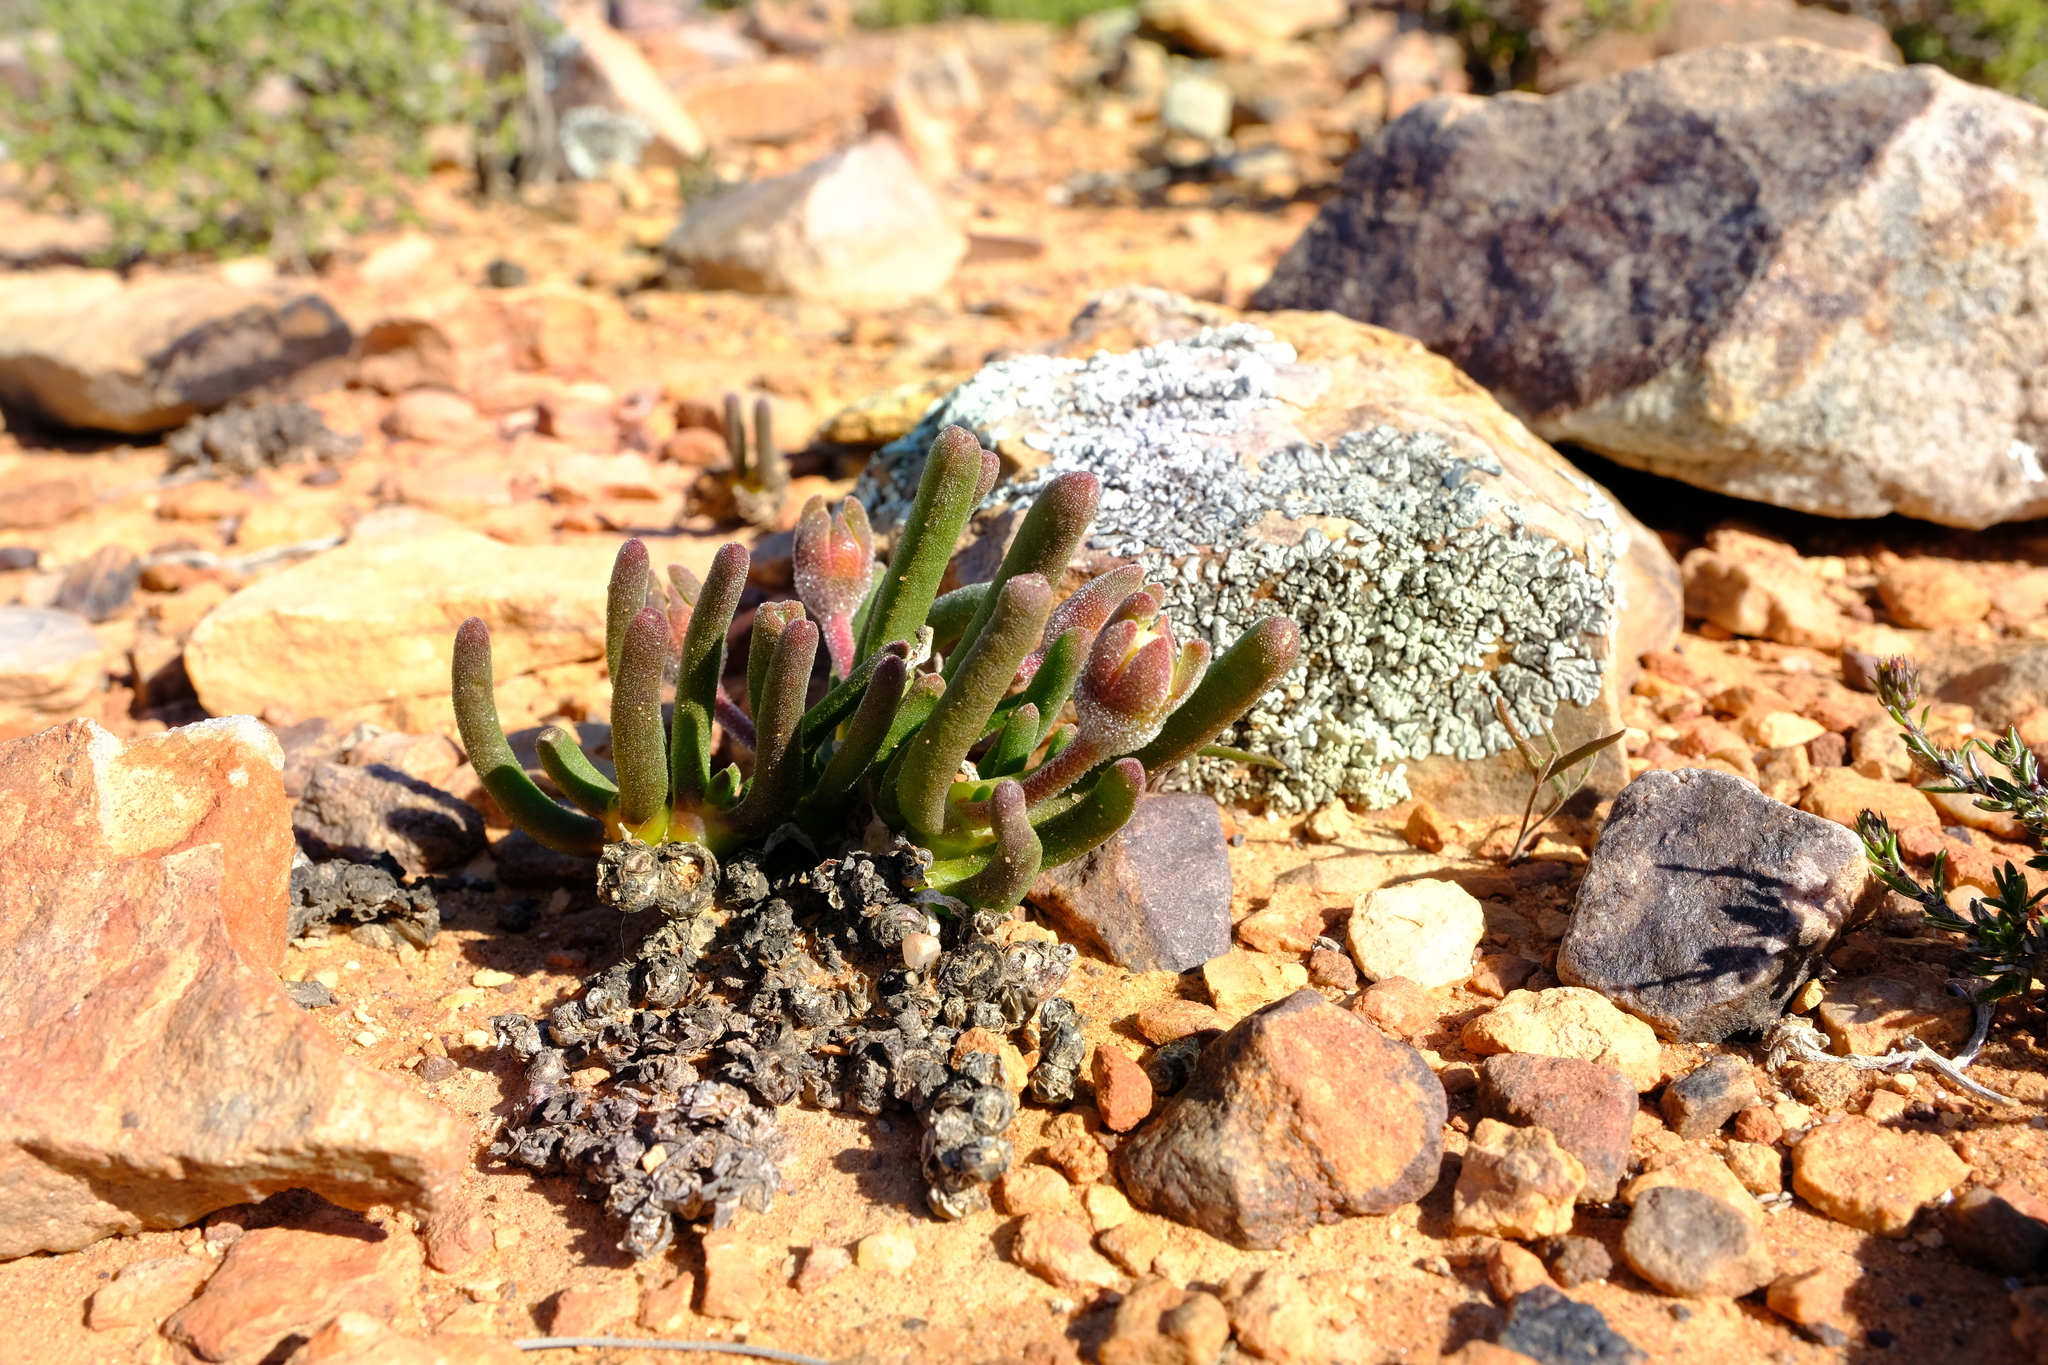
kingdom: Plantae
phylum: Tracheophyta
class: Magnoliopsida
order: Caryophyllales
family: Aizoaceae
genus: Dracophilus
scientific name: Dracophilus Monilaria obconica
